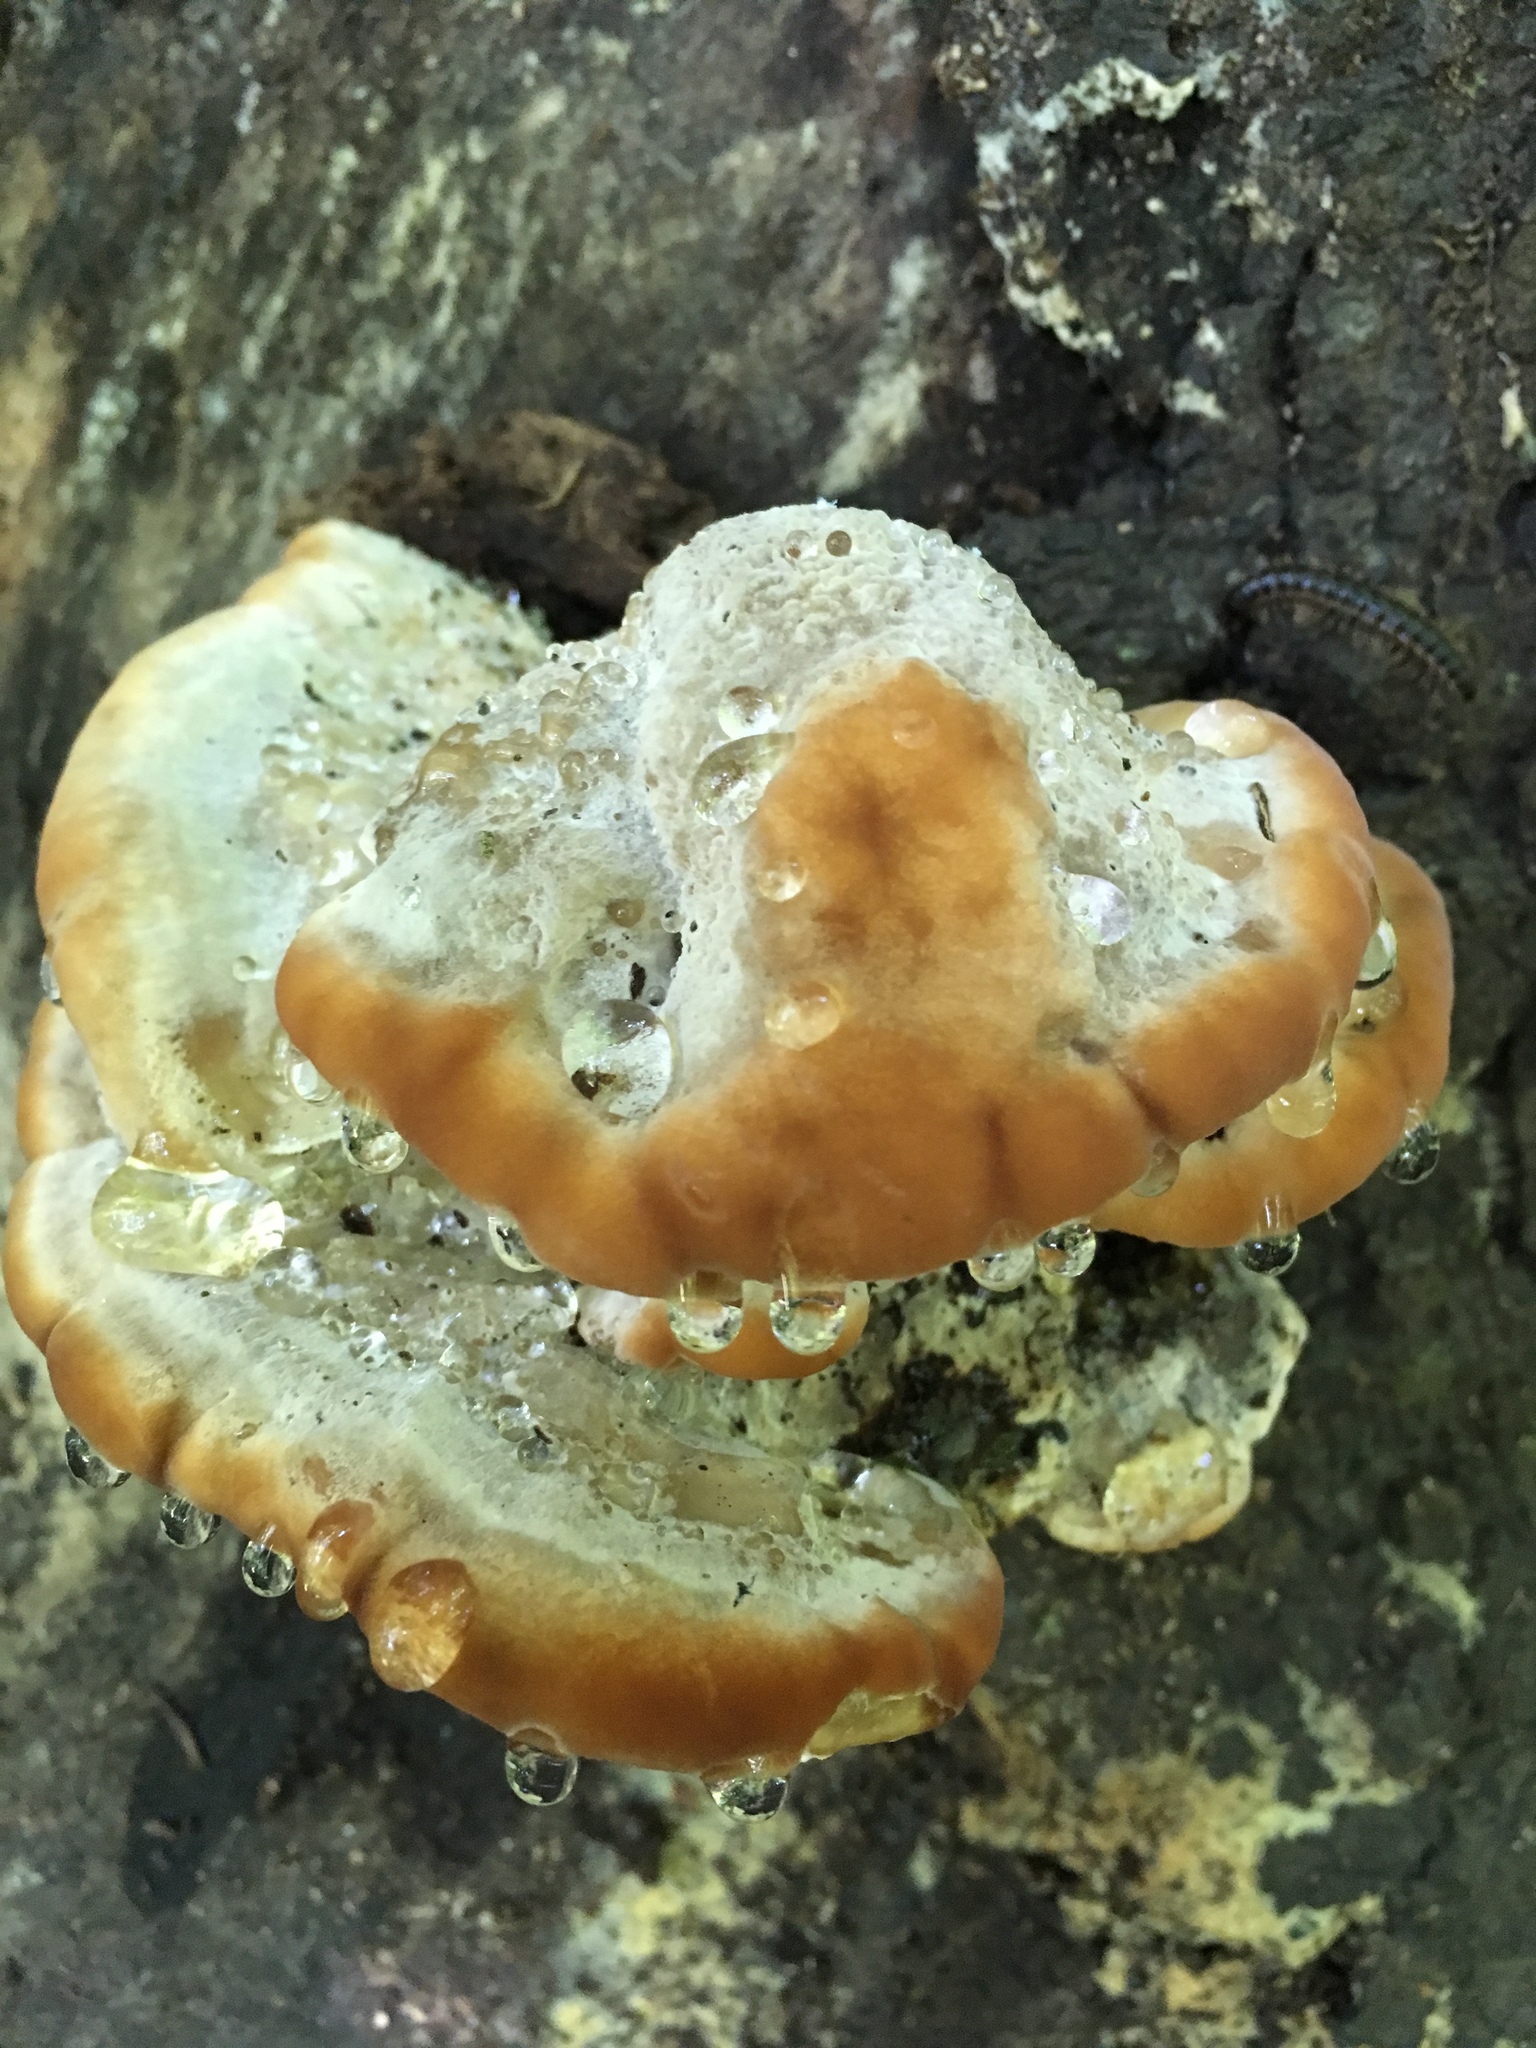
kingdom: Fungi
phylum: Basidiomycota
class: Agaricomycetes
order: Polyporales
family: Fomitopsidaceae
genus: Niveoporofomes
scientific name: Niveoporofomes spraguei
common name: Green cheese polypore
